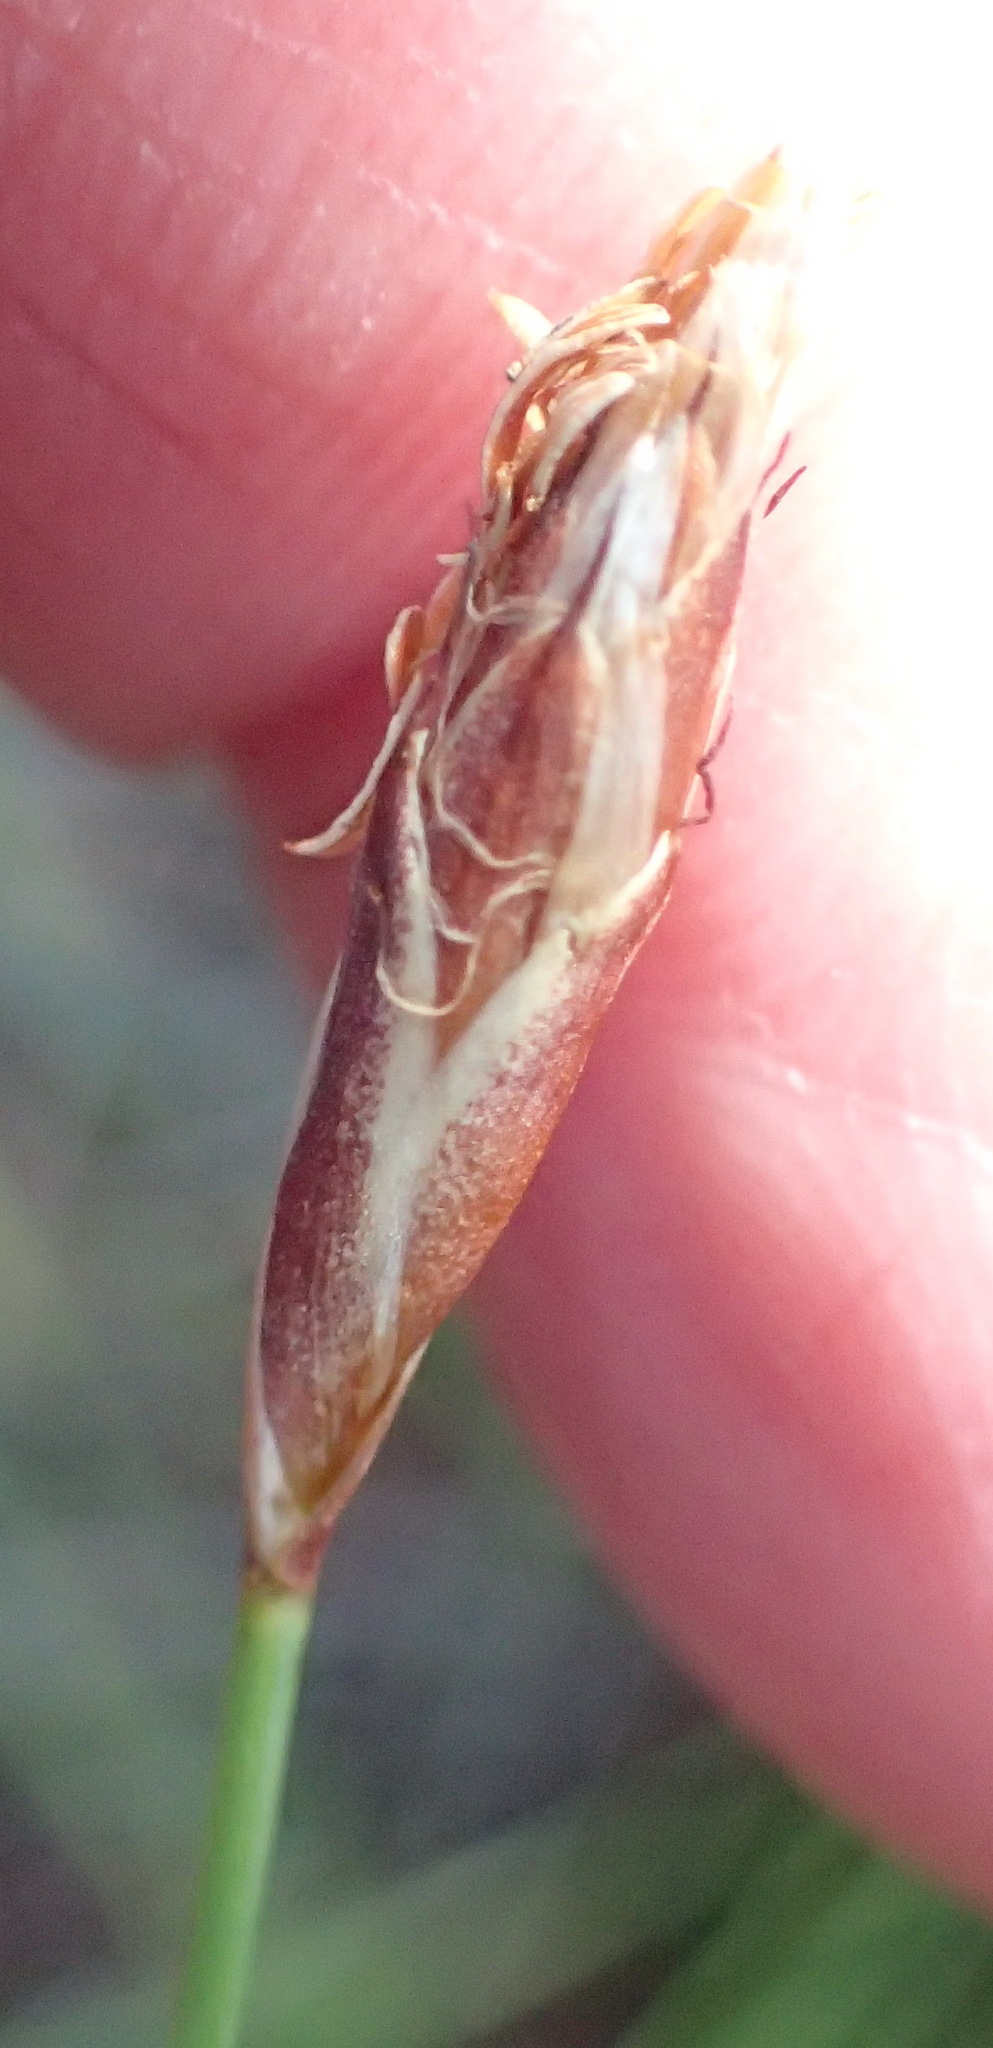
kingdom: Plantae
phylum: Tracheophyta
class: Liliopsida
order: Poales
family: Restionaceae
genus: Hypodiscus
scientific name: Hypodiscus willdenowia
